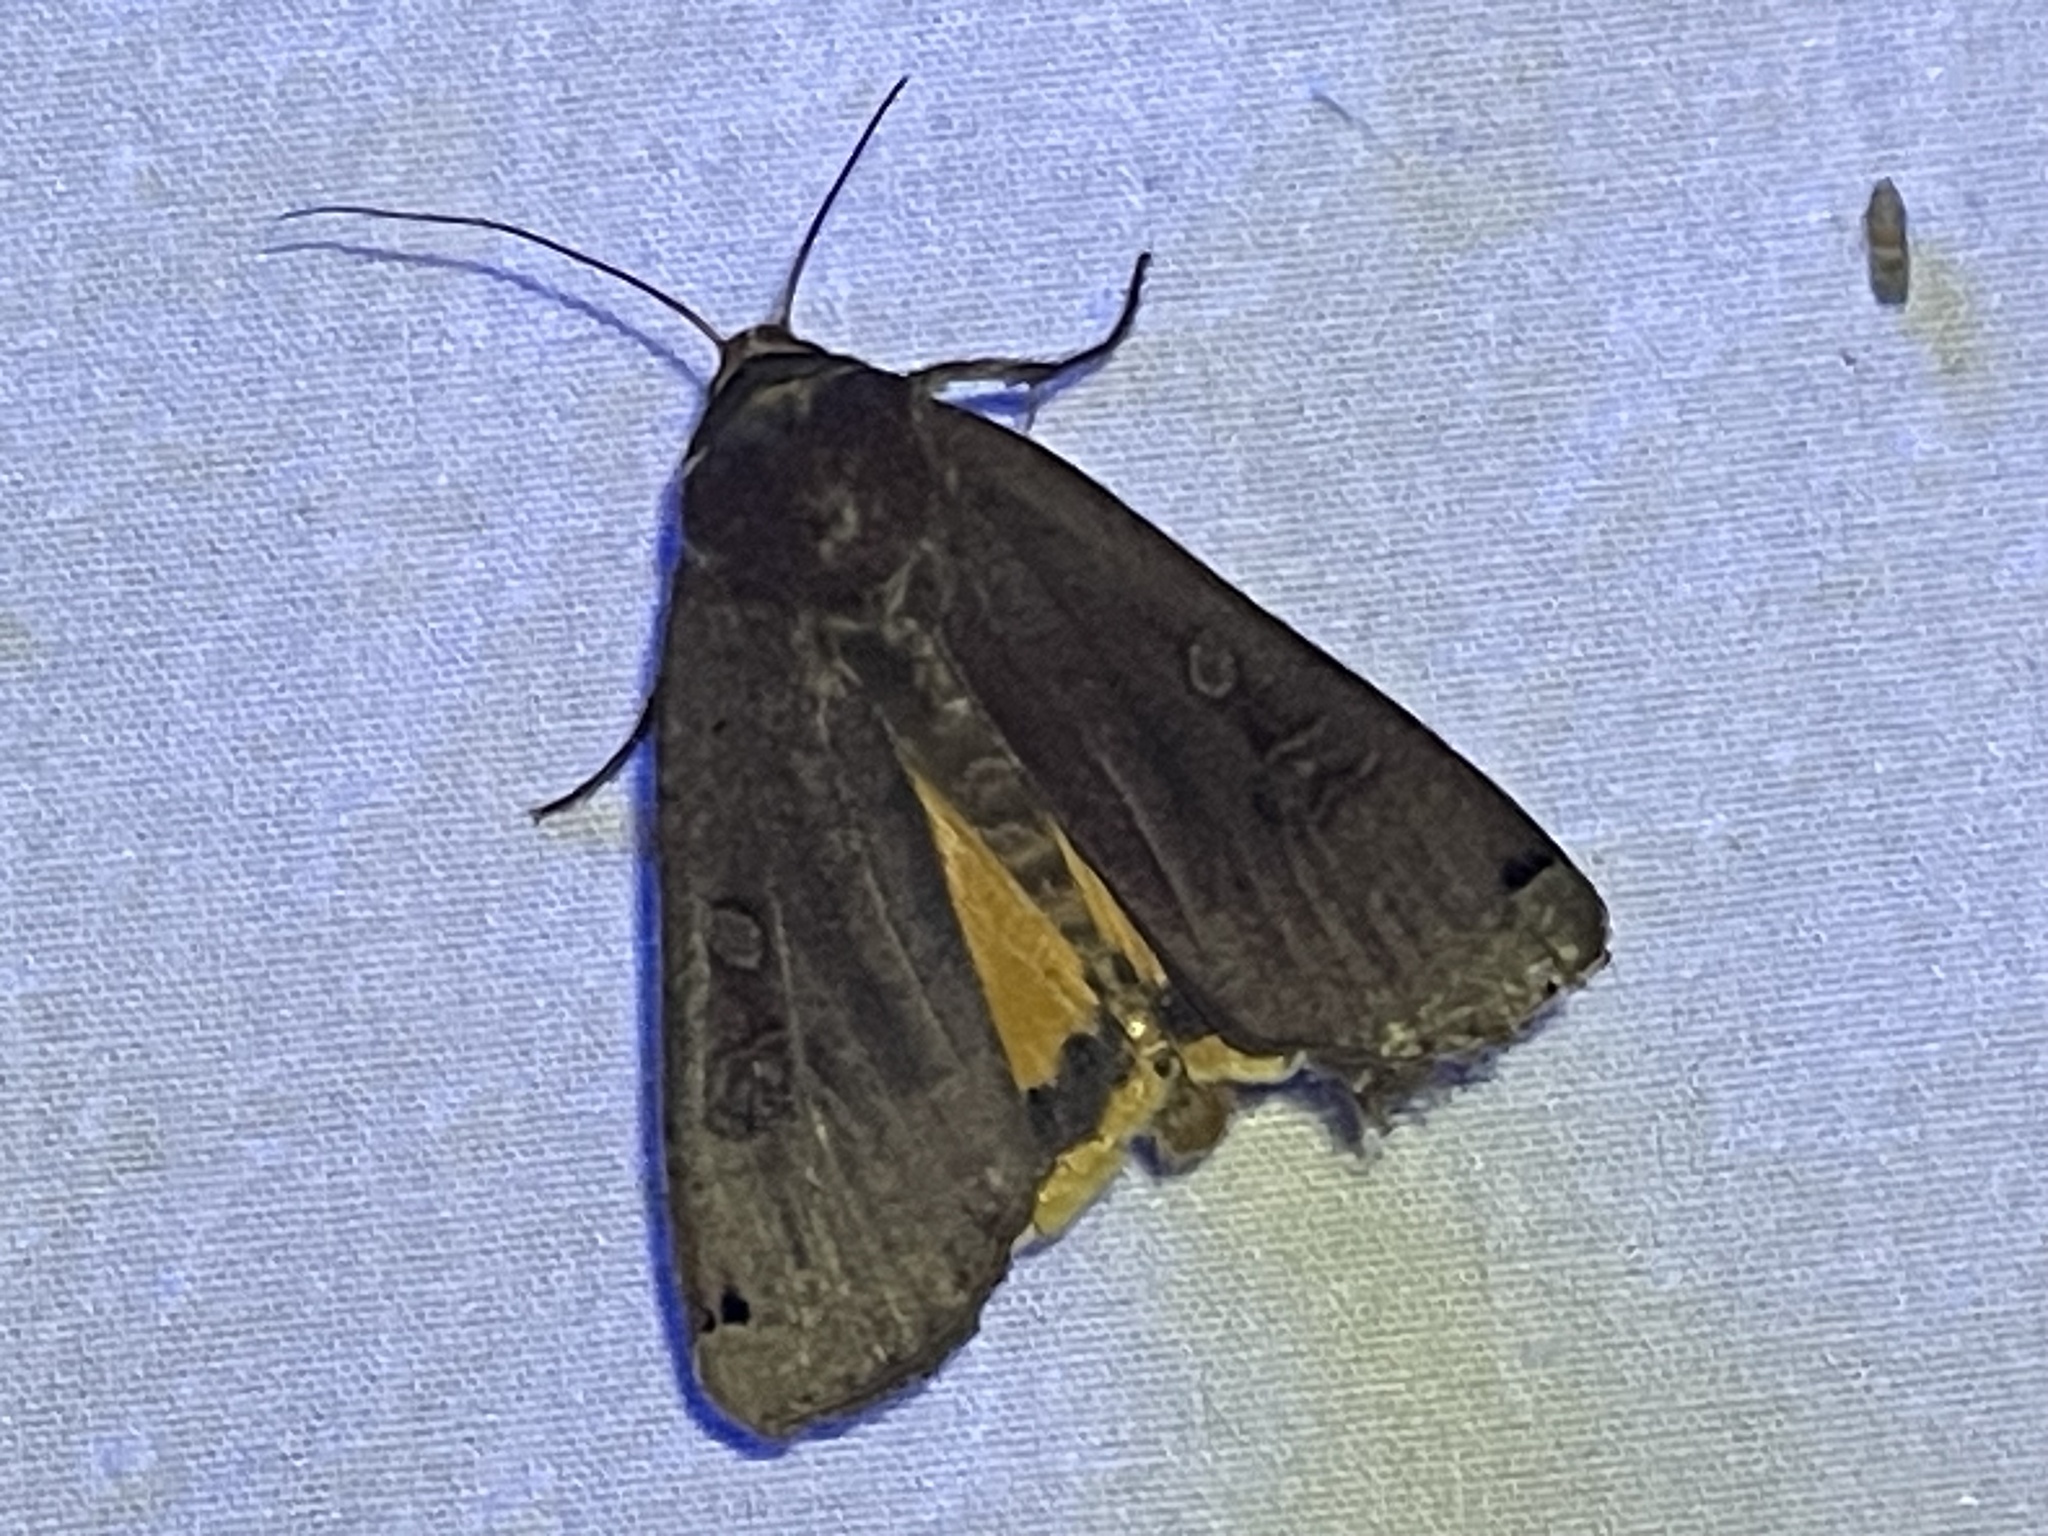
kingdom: Animalia
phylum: Arthropoda
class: Insecta
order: Lepidoptera
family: Noctuidae
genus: Noctua
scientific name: Noctua pronuba
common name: Large yellow underwing
